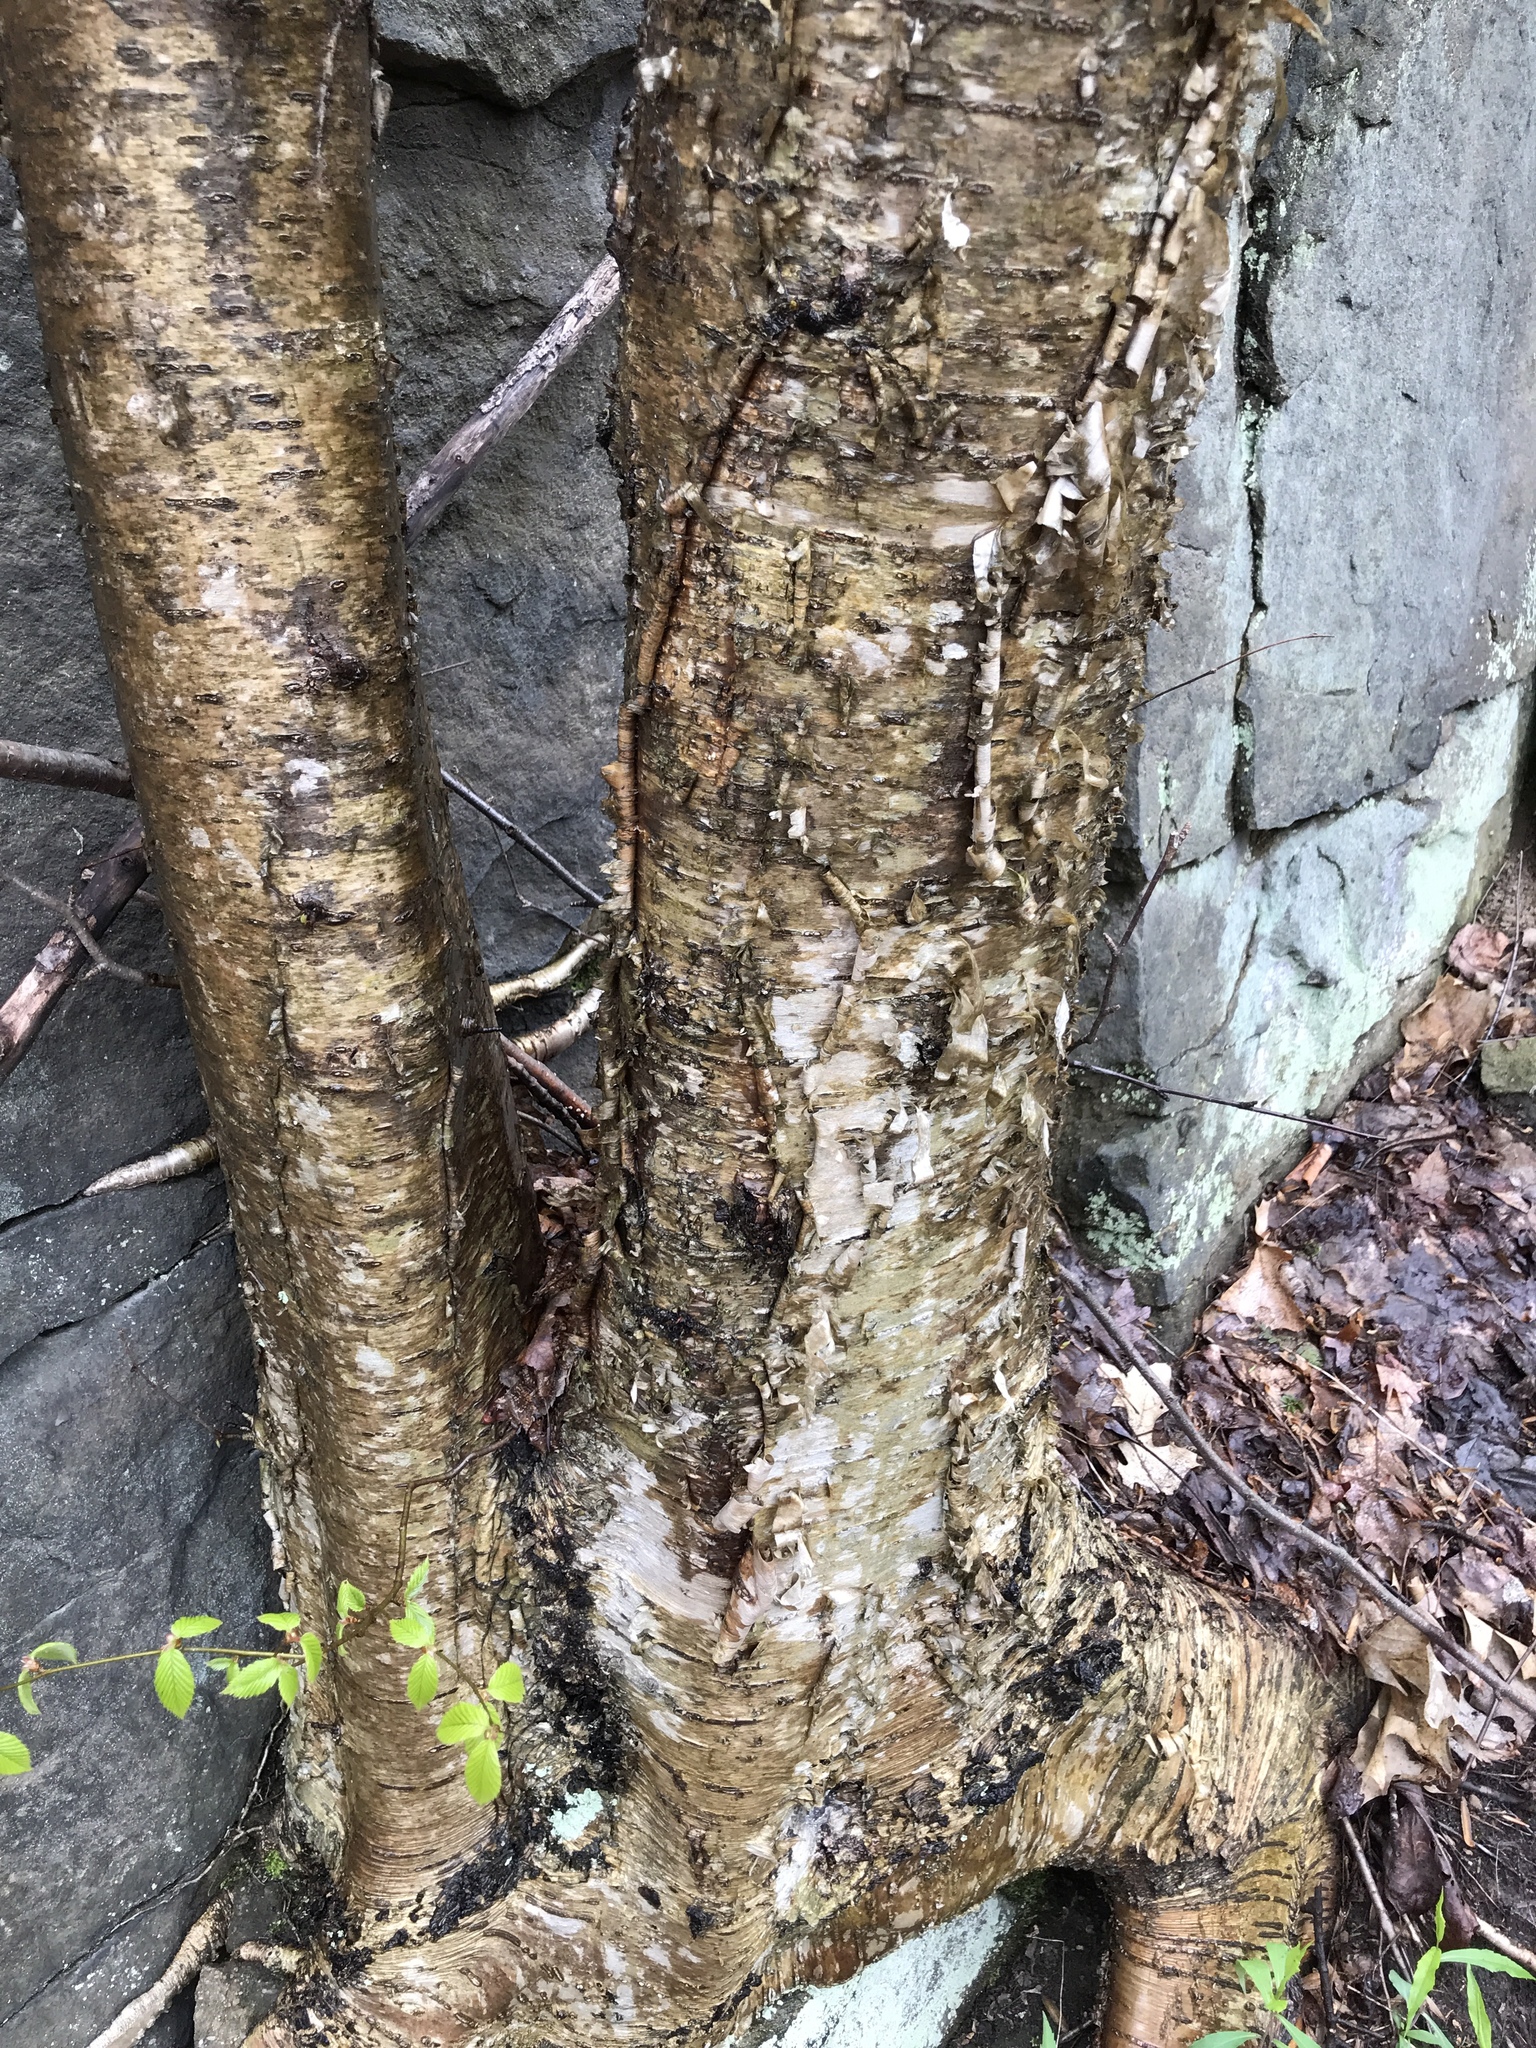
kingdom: Plantae
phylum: Tracheophyta
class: Magnoliopsida
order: Fagales
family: Betulaceae
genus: Betula
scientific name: Betula alleghaniensis
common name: Yellow birch
